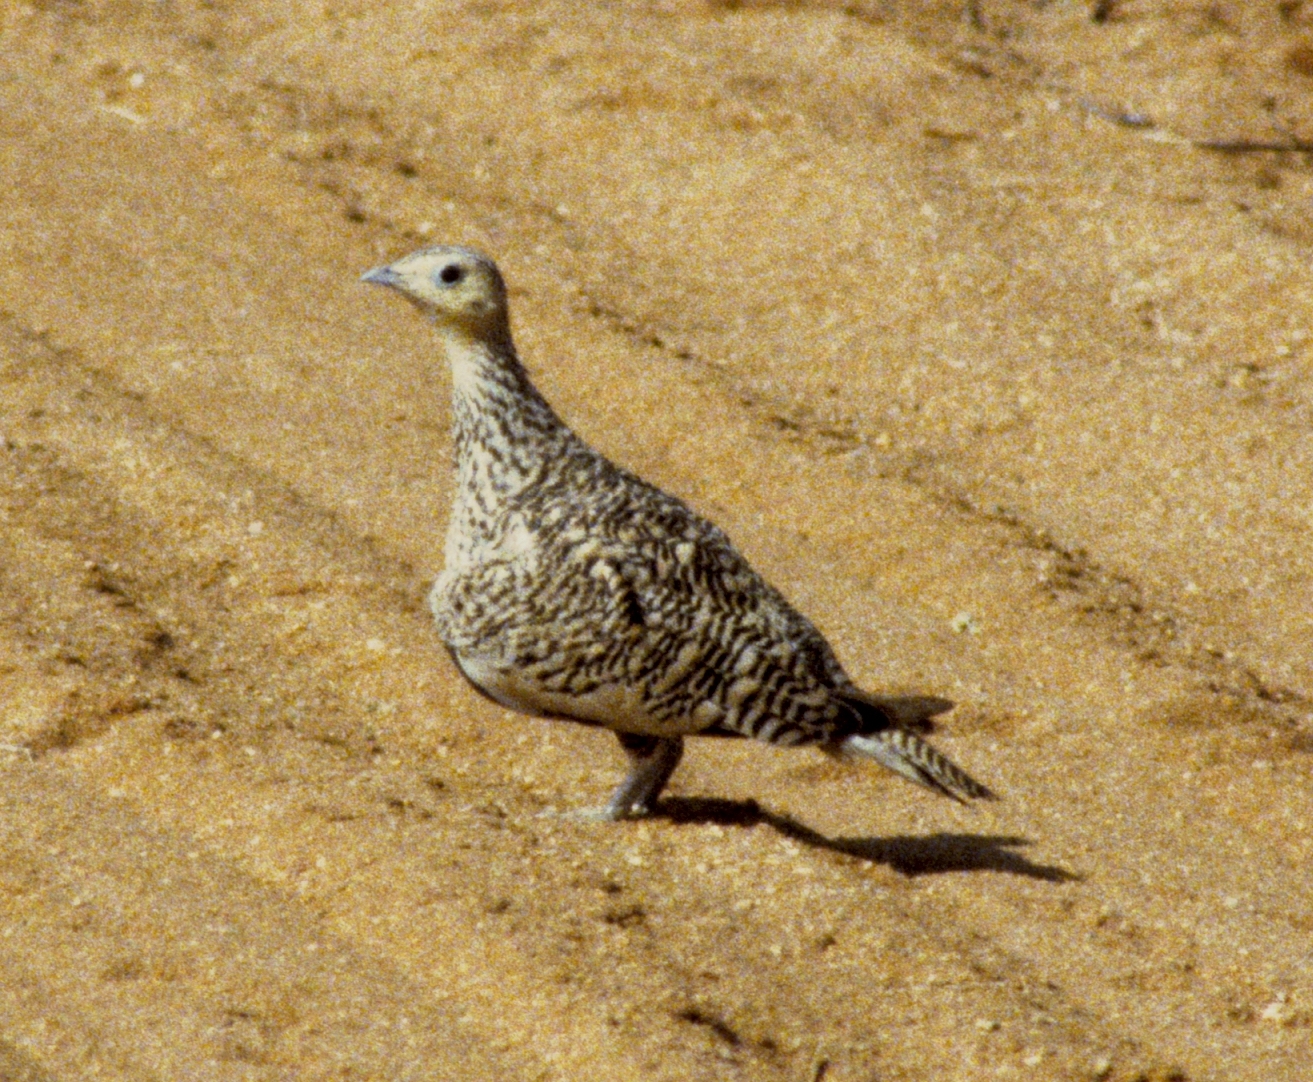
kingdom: Animalia
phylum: Chordata
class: Aves
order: Pteroclidiformes
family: Pteroclididae
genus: Pterocles
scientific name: Pterocles exustus
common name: Chestnut-bellied sandgrouse
